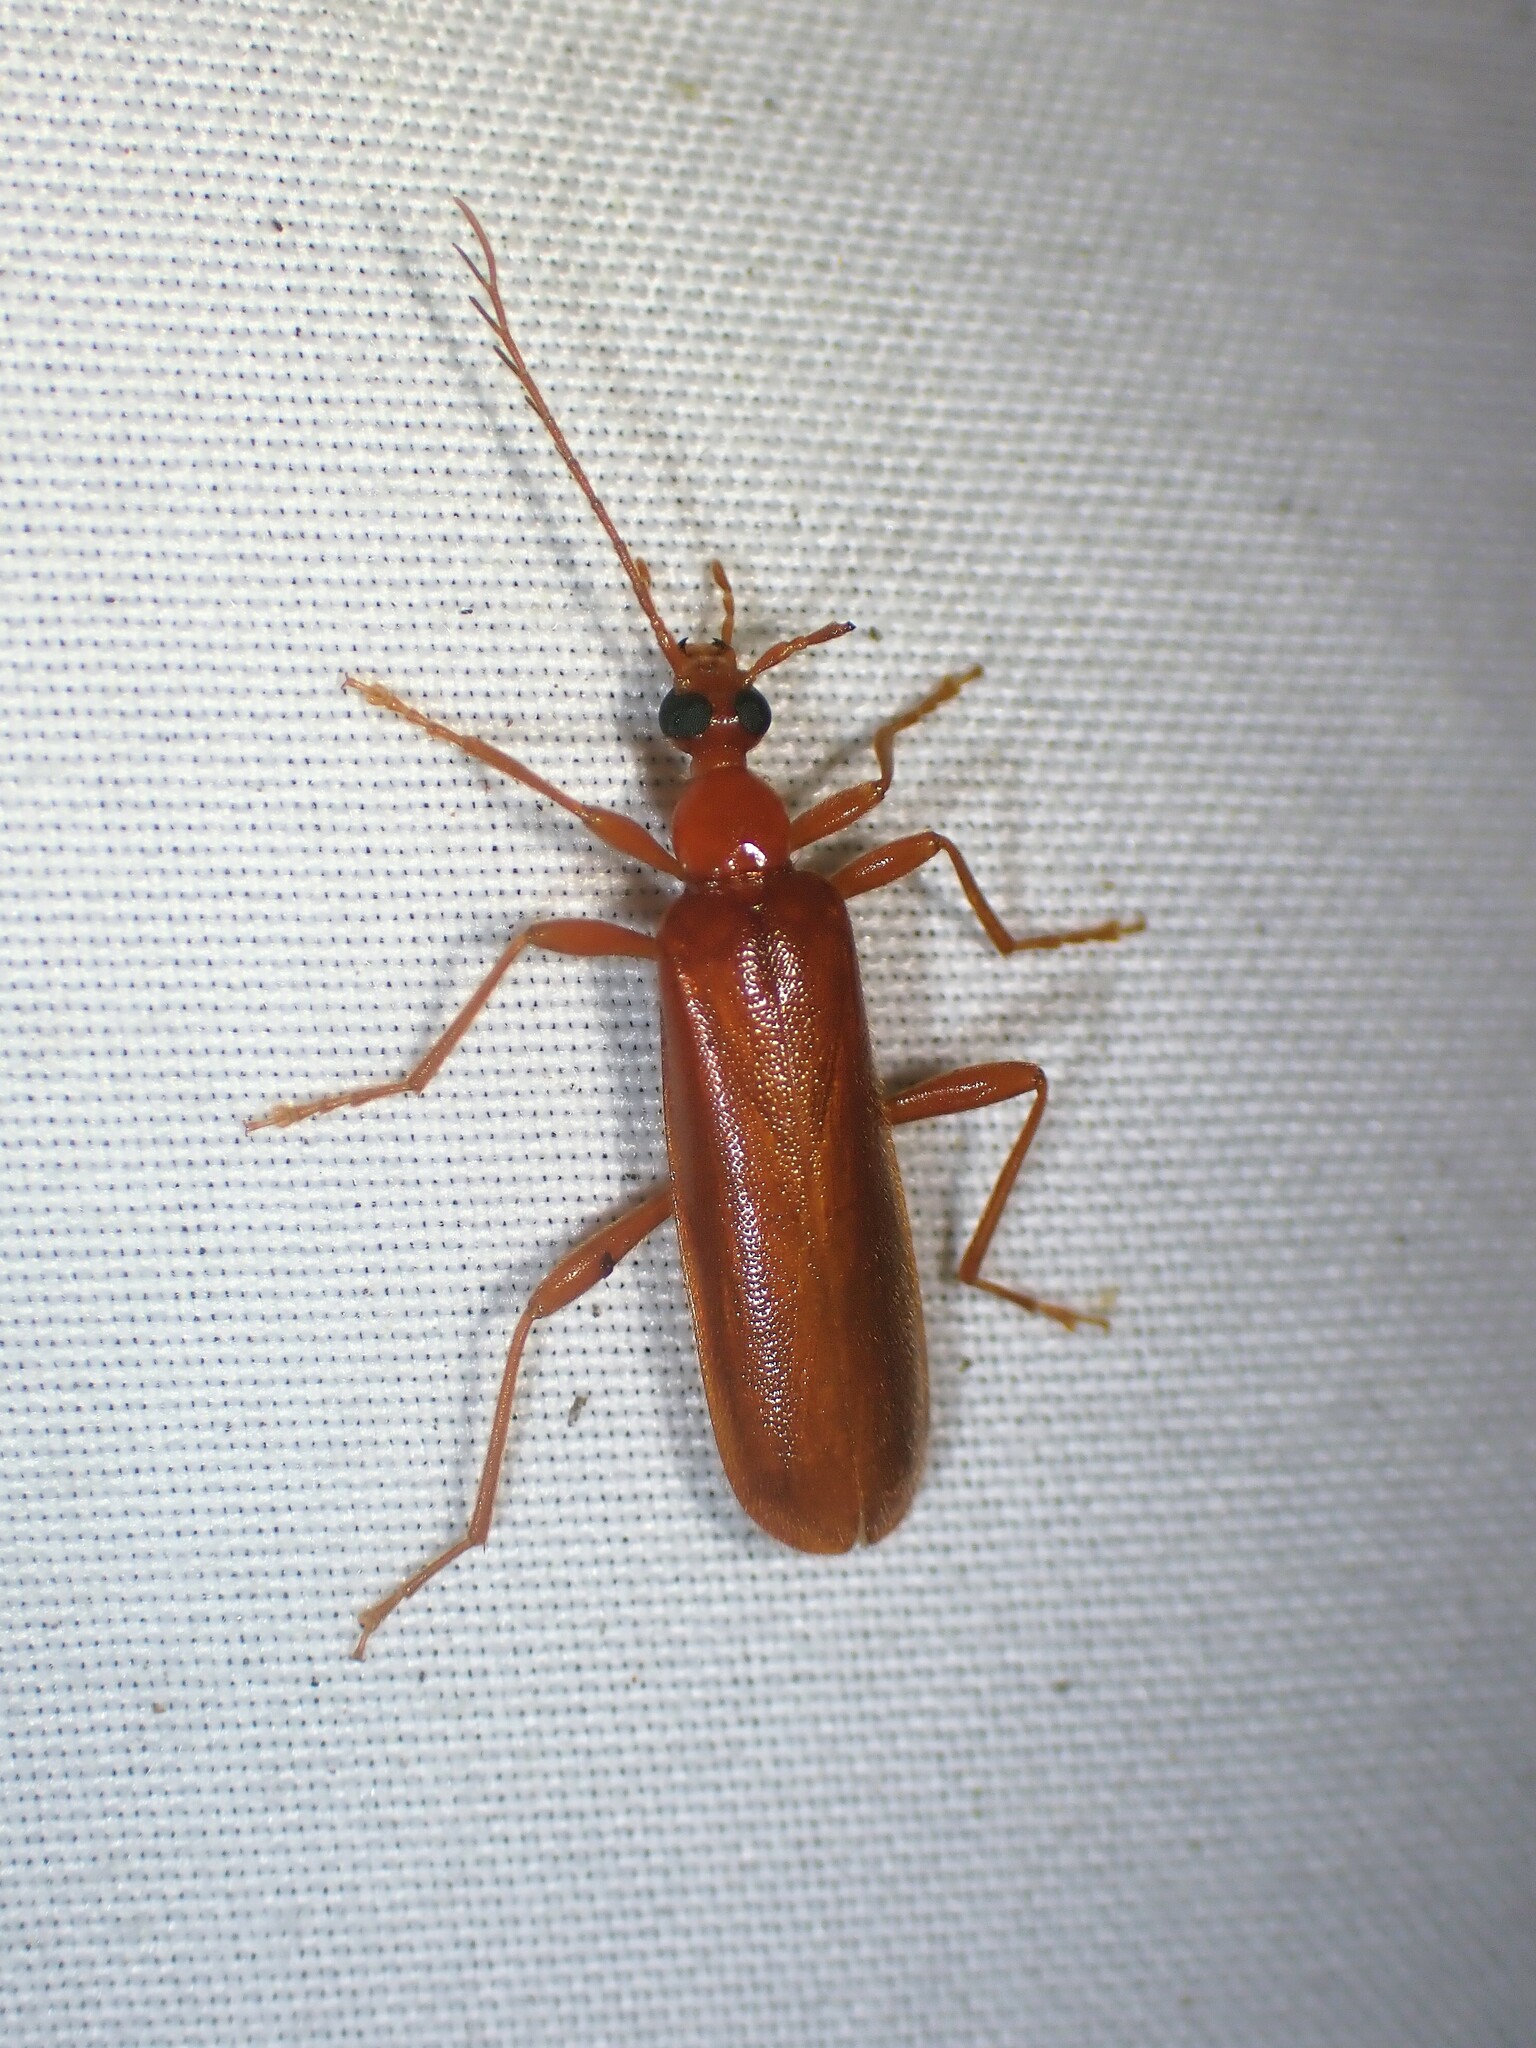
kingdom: Animalia
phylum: Arthropoda
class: Insecta
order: Coleoptera
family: Pyrochroidae
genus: Dendroides
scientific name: Dendroides concolor
